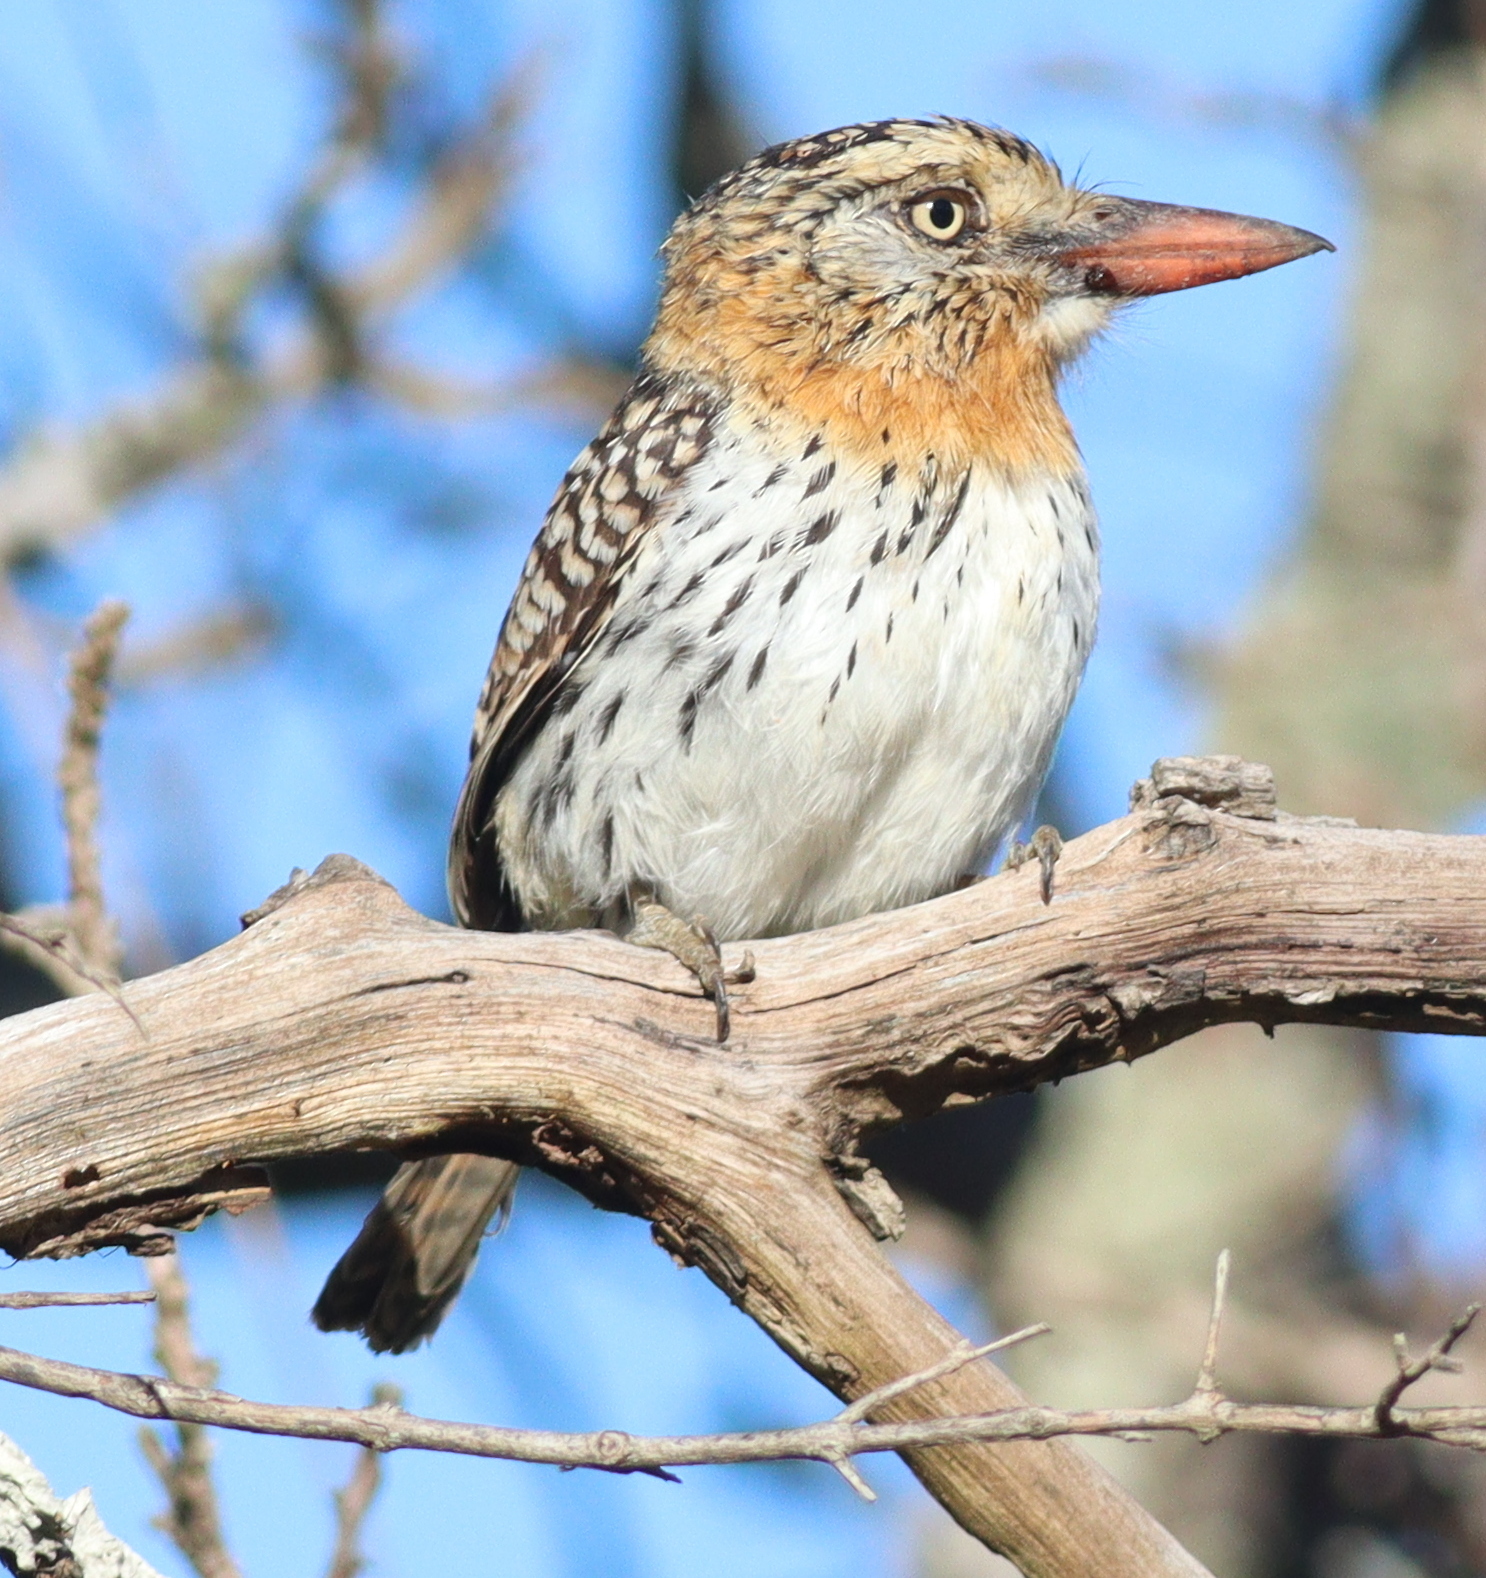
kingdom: Animalia
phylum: Chordata
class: Aves
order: Piciformes
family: Bucconidae
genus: Nystalus
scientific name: Nystalus maculatus
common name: Caatinga puffbird
